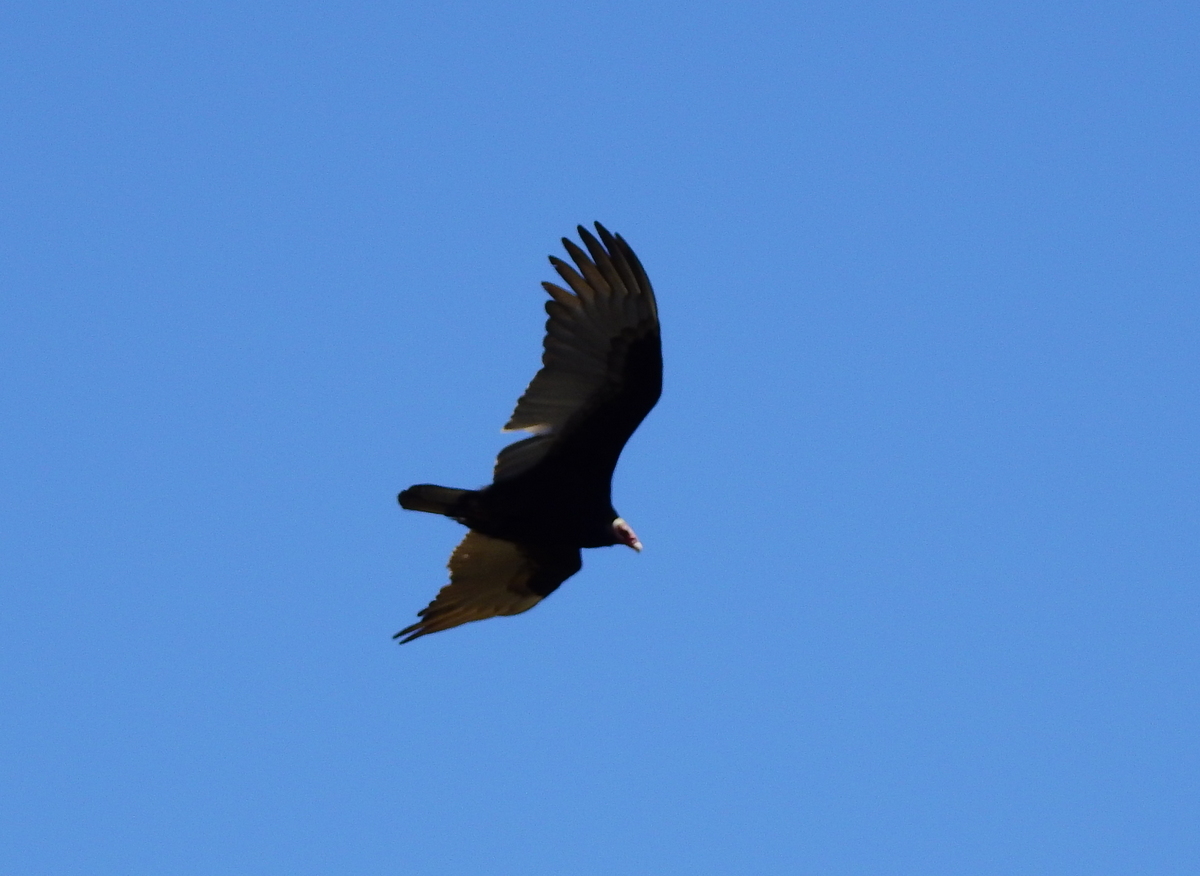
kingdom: Animalia
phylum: Chordata
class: Aves
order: Accipitriformes
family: Cathartidae
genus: Cathartes
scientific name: Cathartes aura
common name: Turkey vulture
